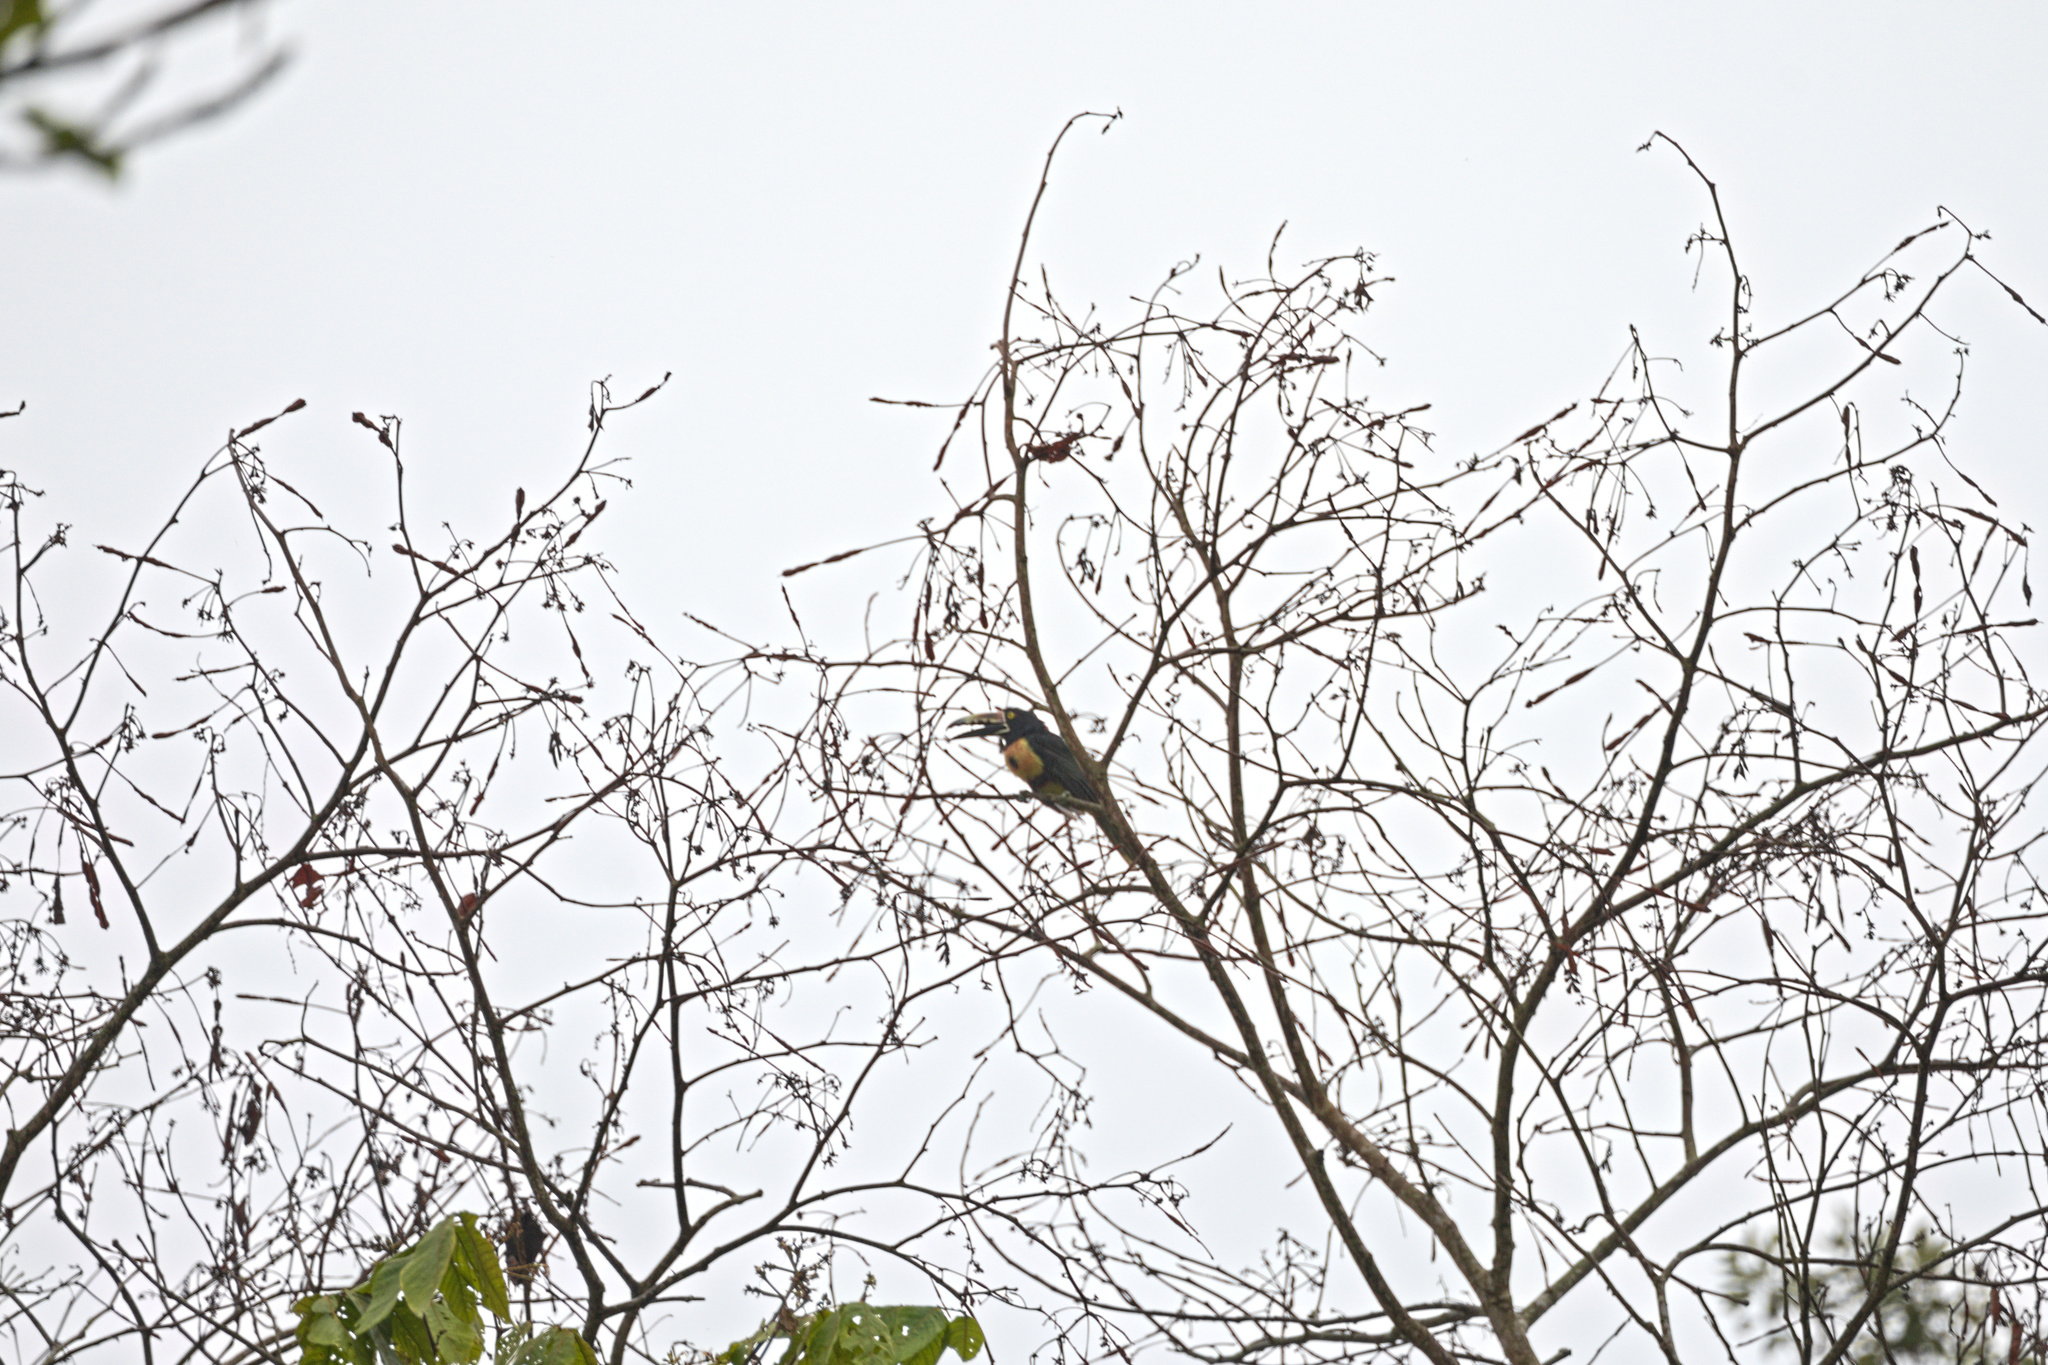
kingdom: Animalia
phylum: Chordata
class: Aves
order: Piciformes
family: Ramphastidae
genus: Pteroglossus
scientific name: Pteroglossus torquatus
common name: Collared aracari
